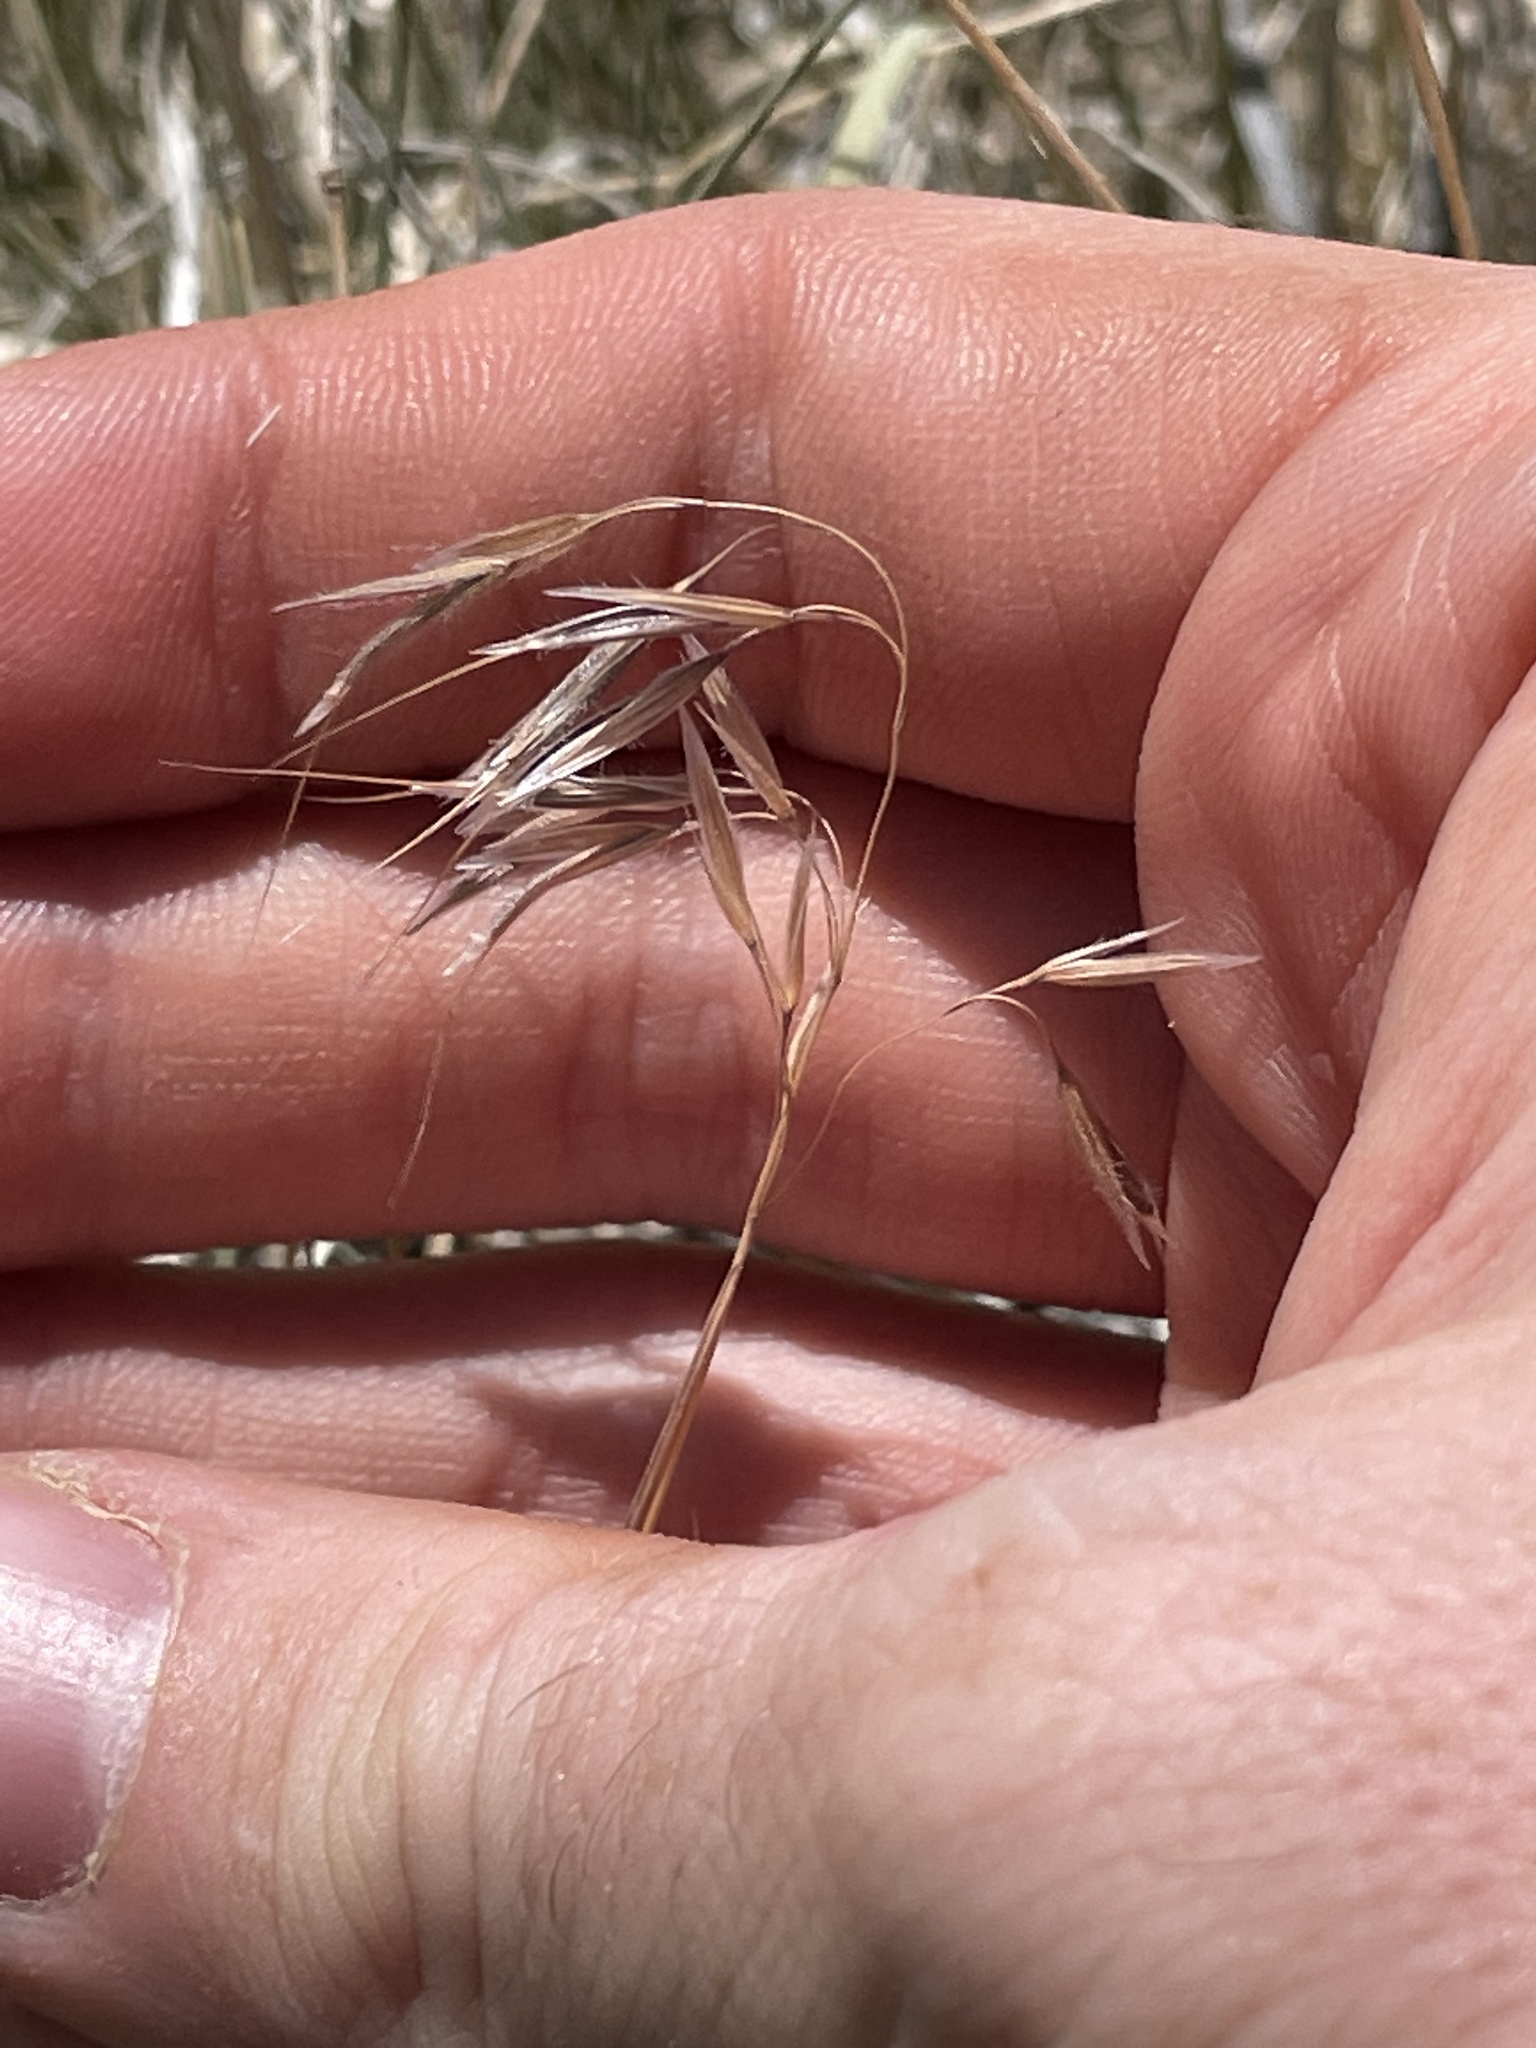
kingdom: Plantae
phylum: Tracheophyta
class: Liliopsida
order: Poales
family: Poaceae
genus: Bromus
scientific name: Bromus tectorum
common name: Cheatgrass
